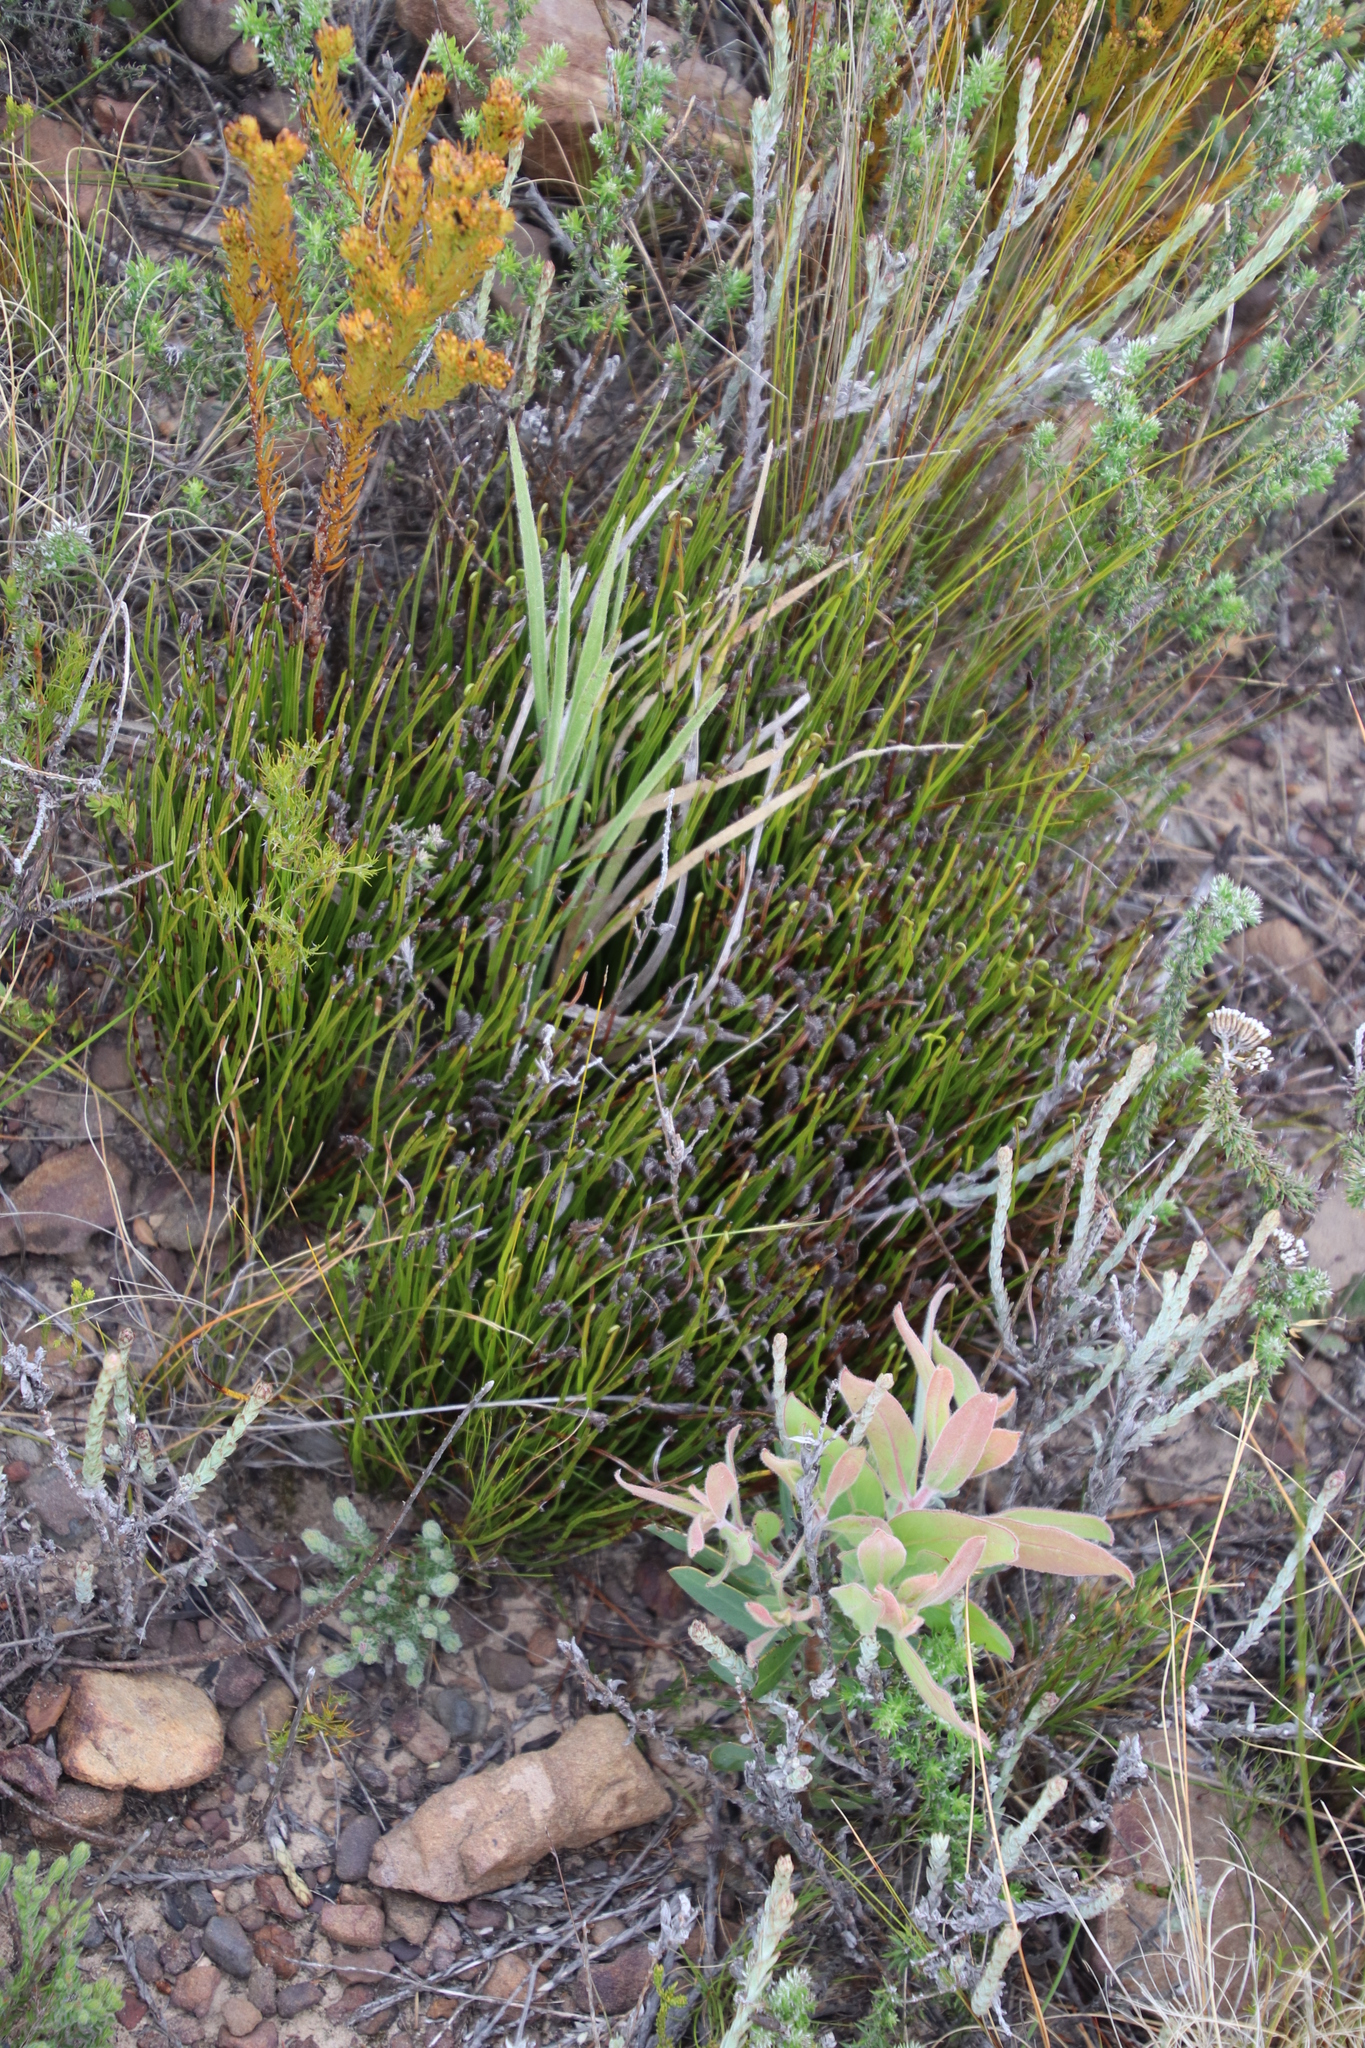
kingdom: Plantae
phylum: Tracheophyta
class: Polypodiopsida
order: Schizaeales
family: Schizaeaceae
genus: Schizaea
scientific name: Schizaea pectinata
